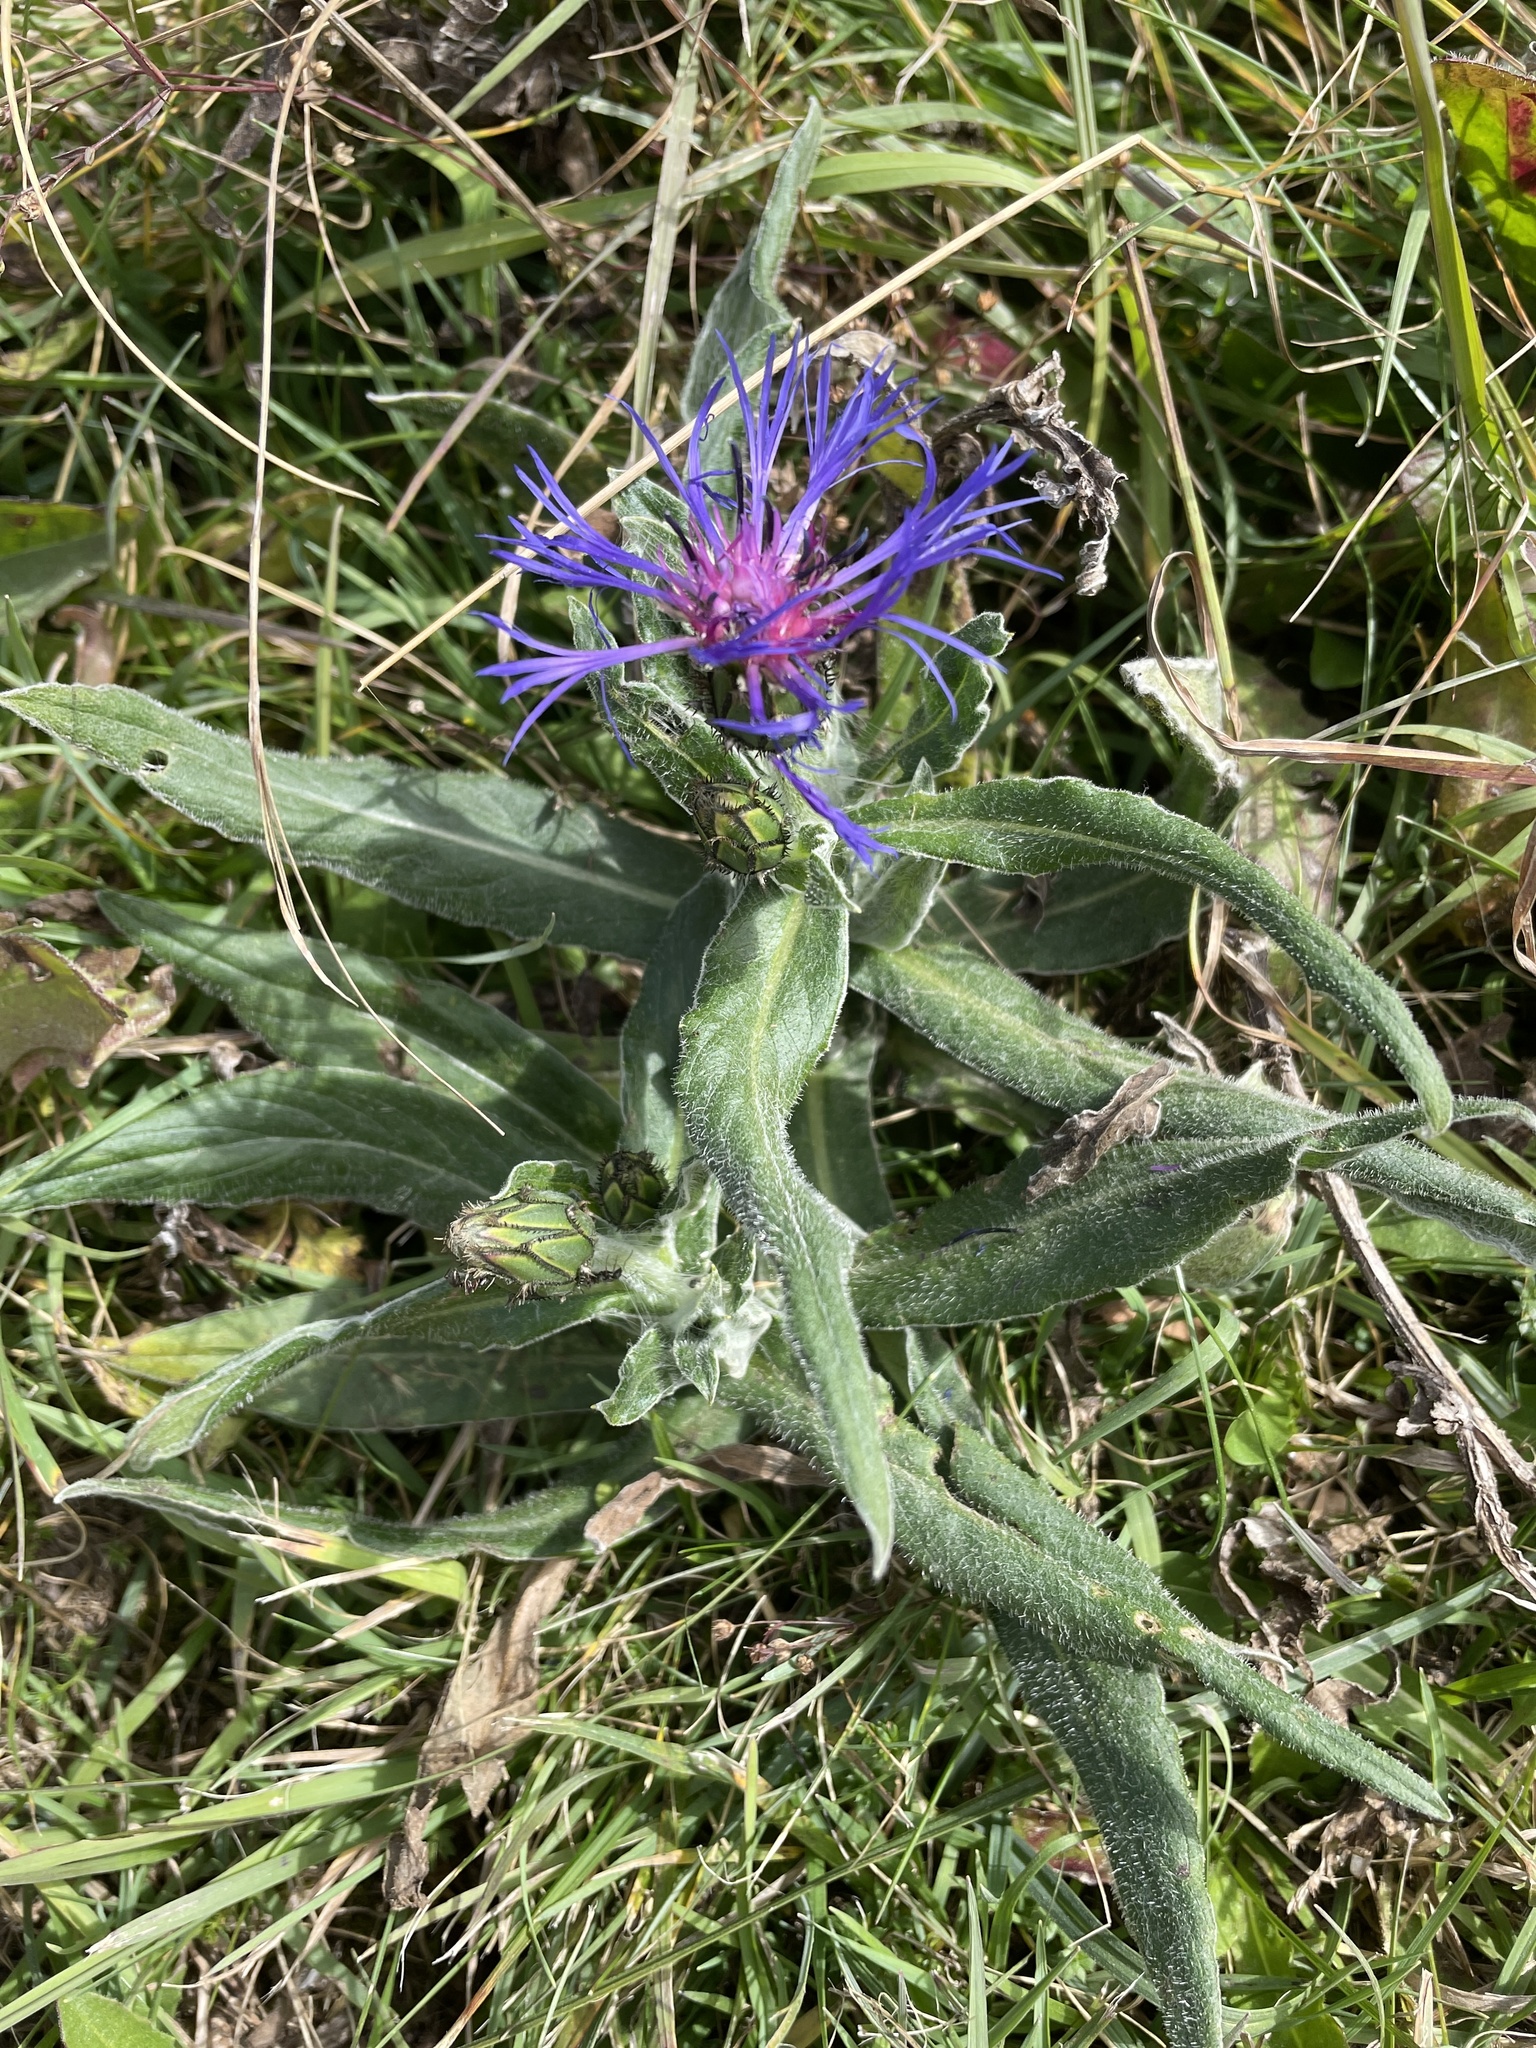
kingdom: Plantae
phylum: Tracheophyta
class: Magnoliopsida
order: Asterales
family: Asteraceae
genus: Centaurea
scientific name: Centaurea montana
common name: Perennial cornflower
